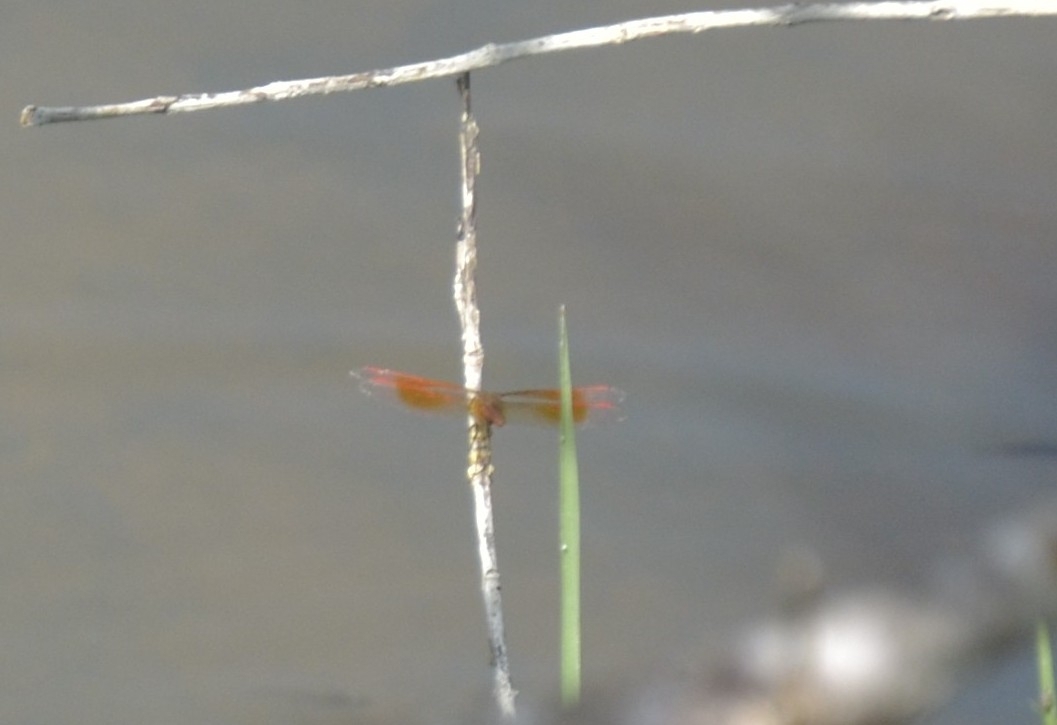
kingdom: Animalia
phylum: Arthropoda
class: Insecta
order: Odonata
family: Libellulidae
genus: Brachythemis
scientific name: Brachythemis contaminata
